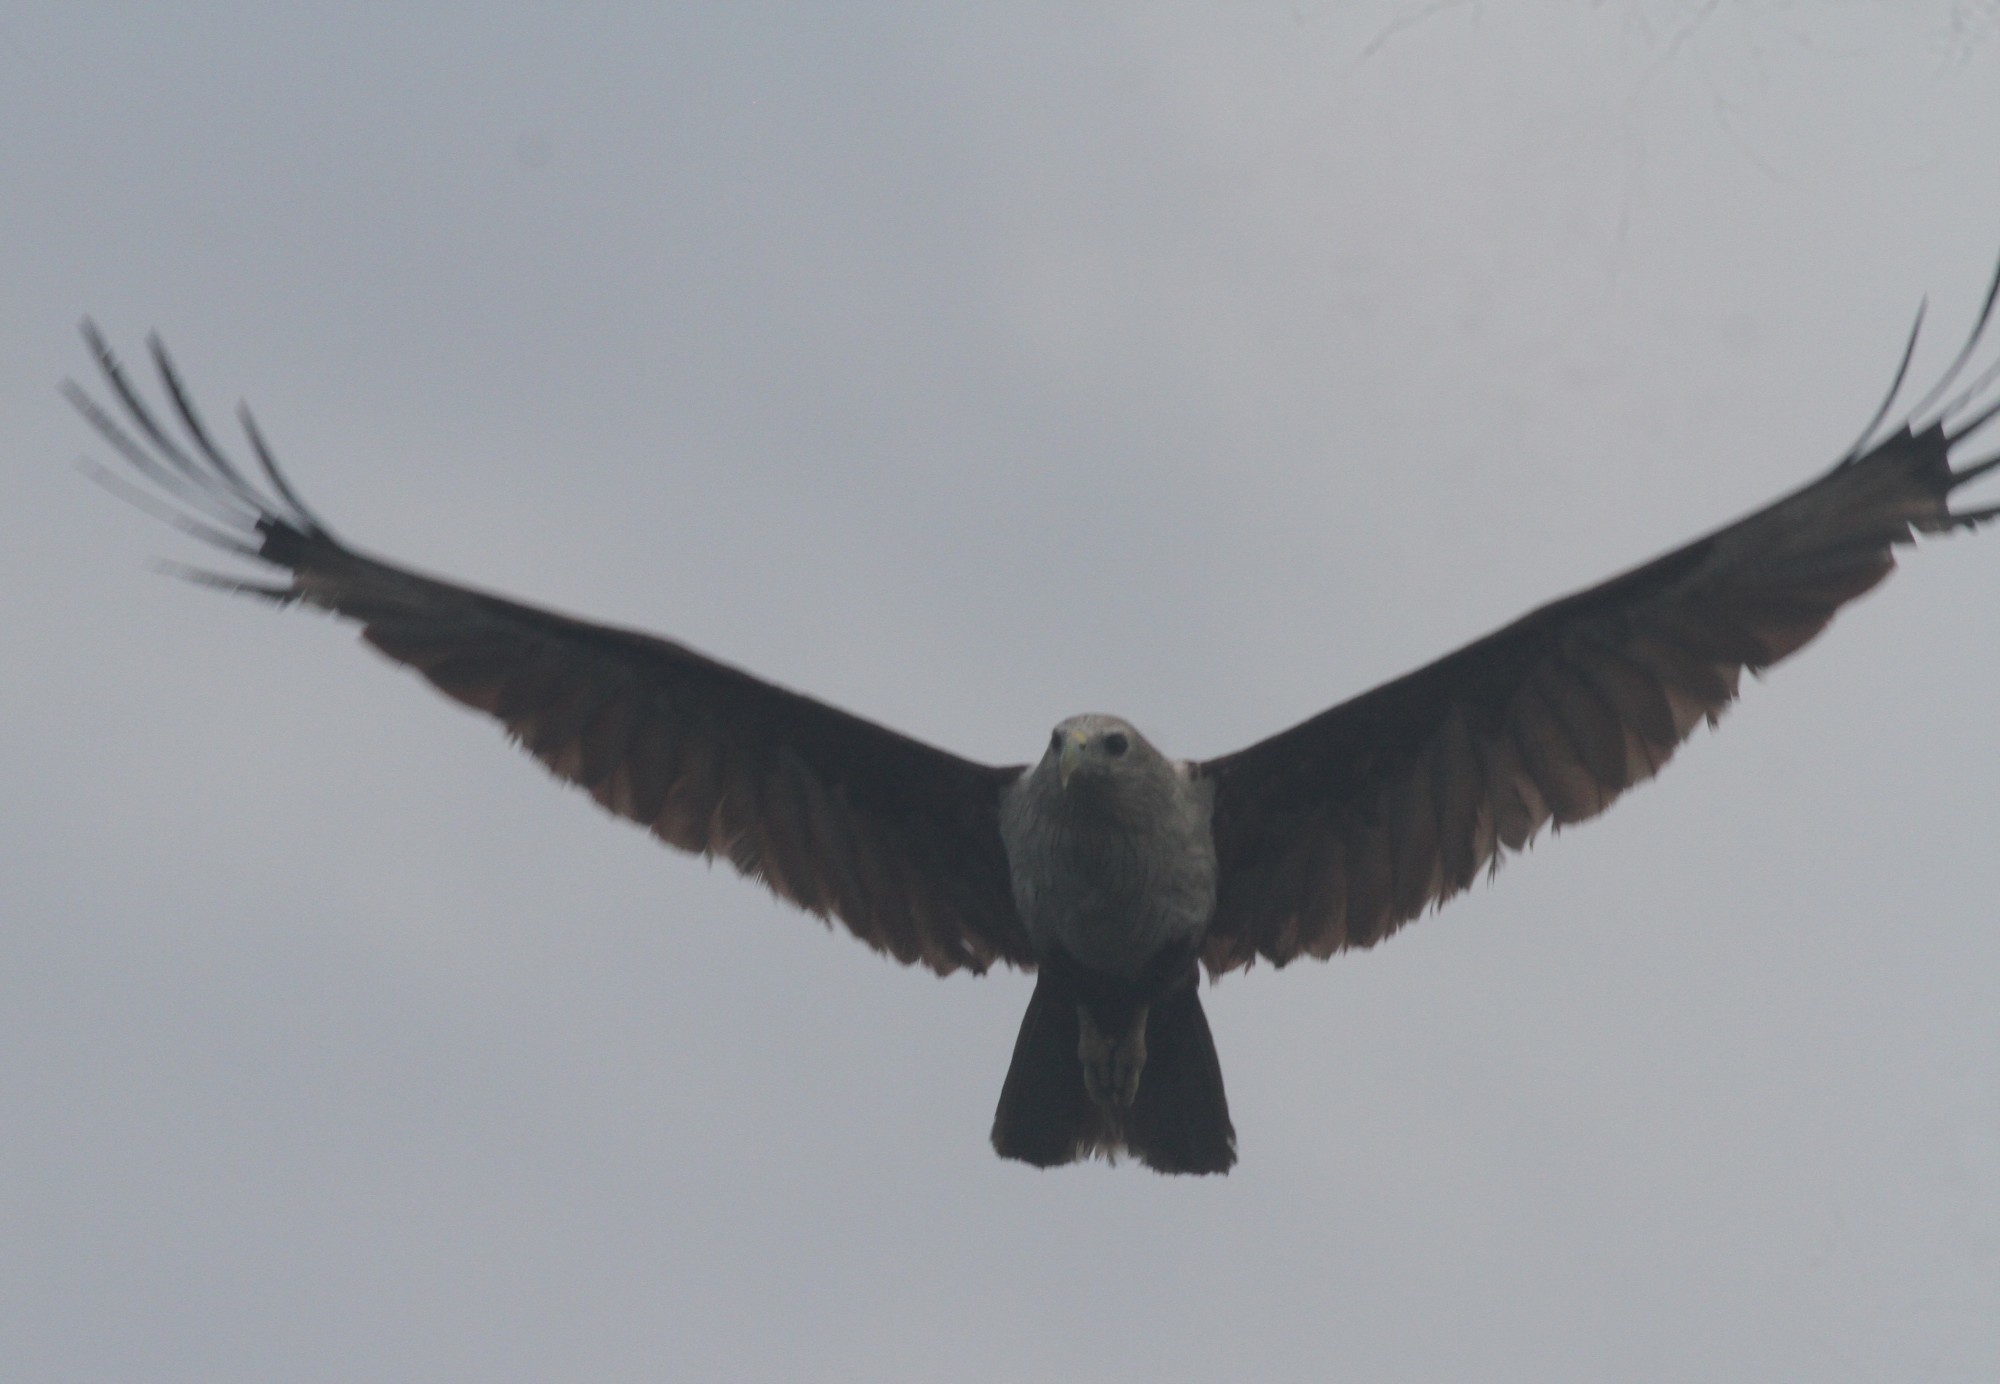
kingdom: Animalia
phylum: Chordata
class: Aves
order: Accipitriformes
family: Accipitridae
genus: Haliastur
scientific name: Haliastur indus
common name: Brahminy kite
